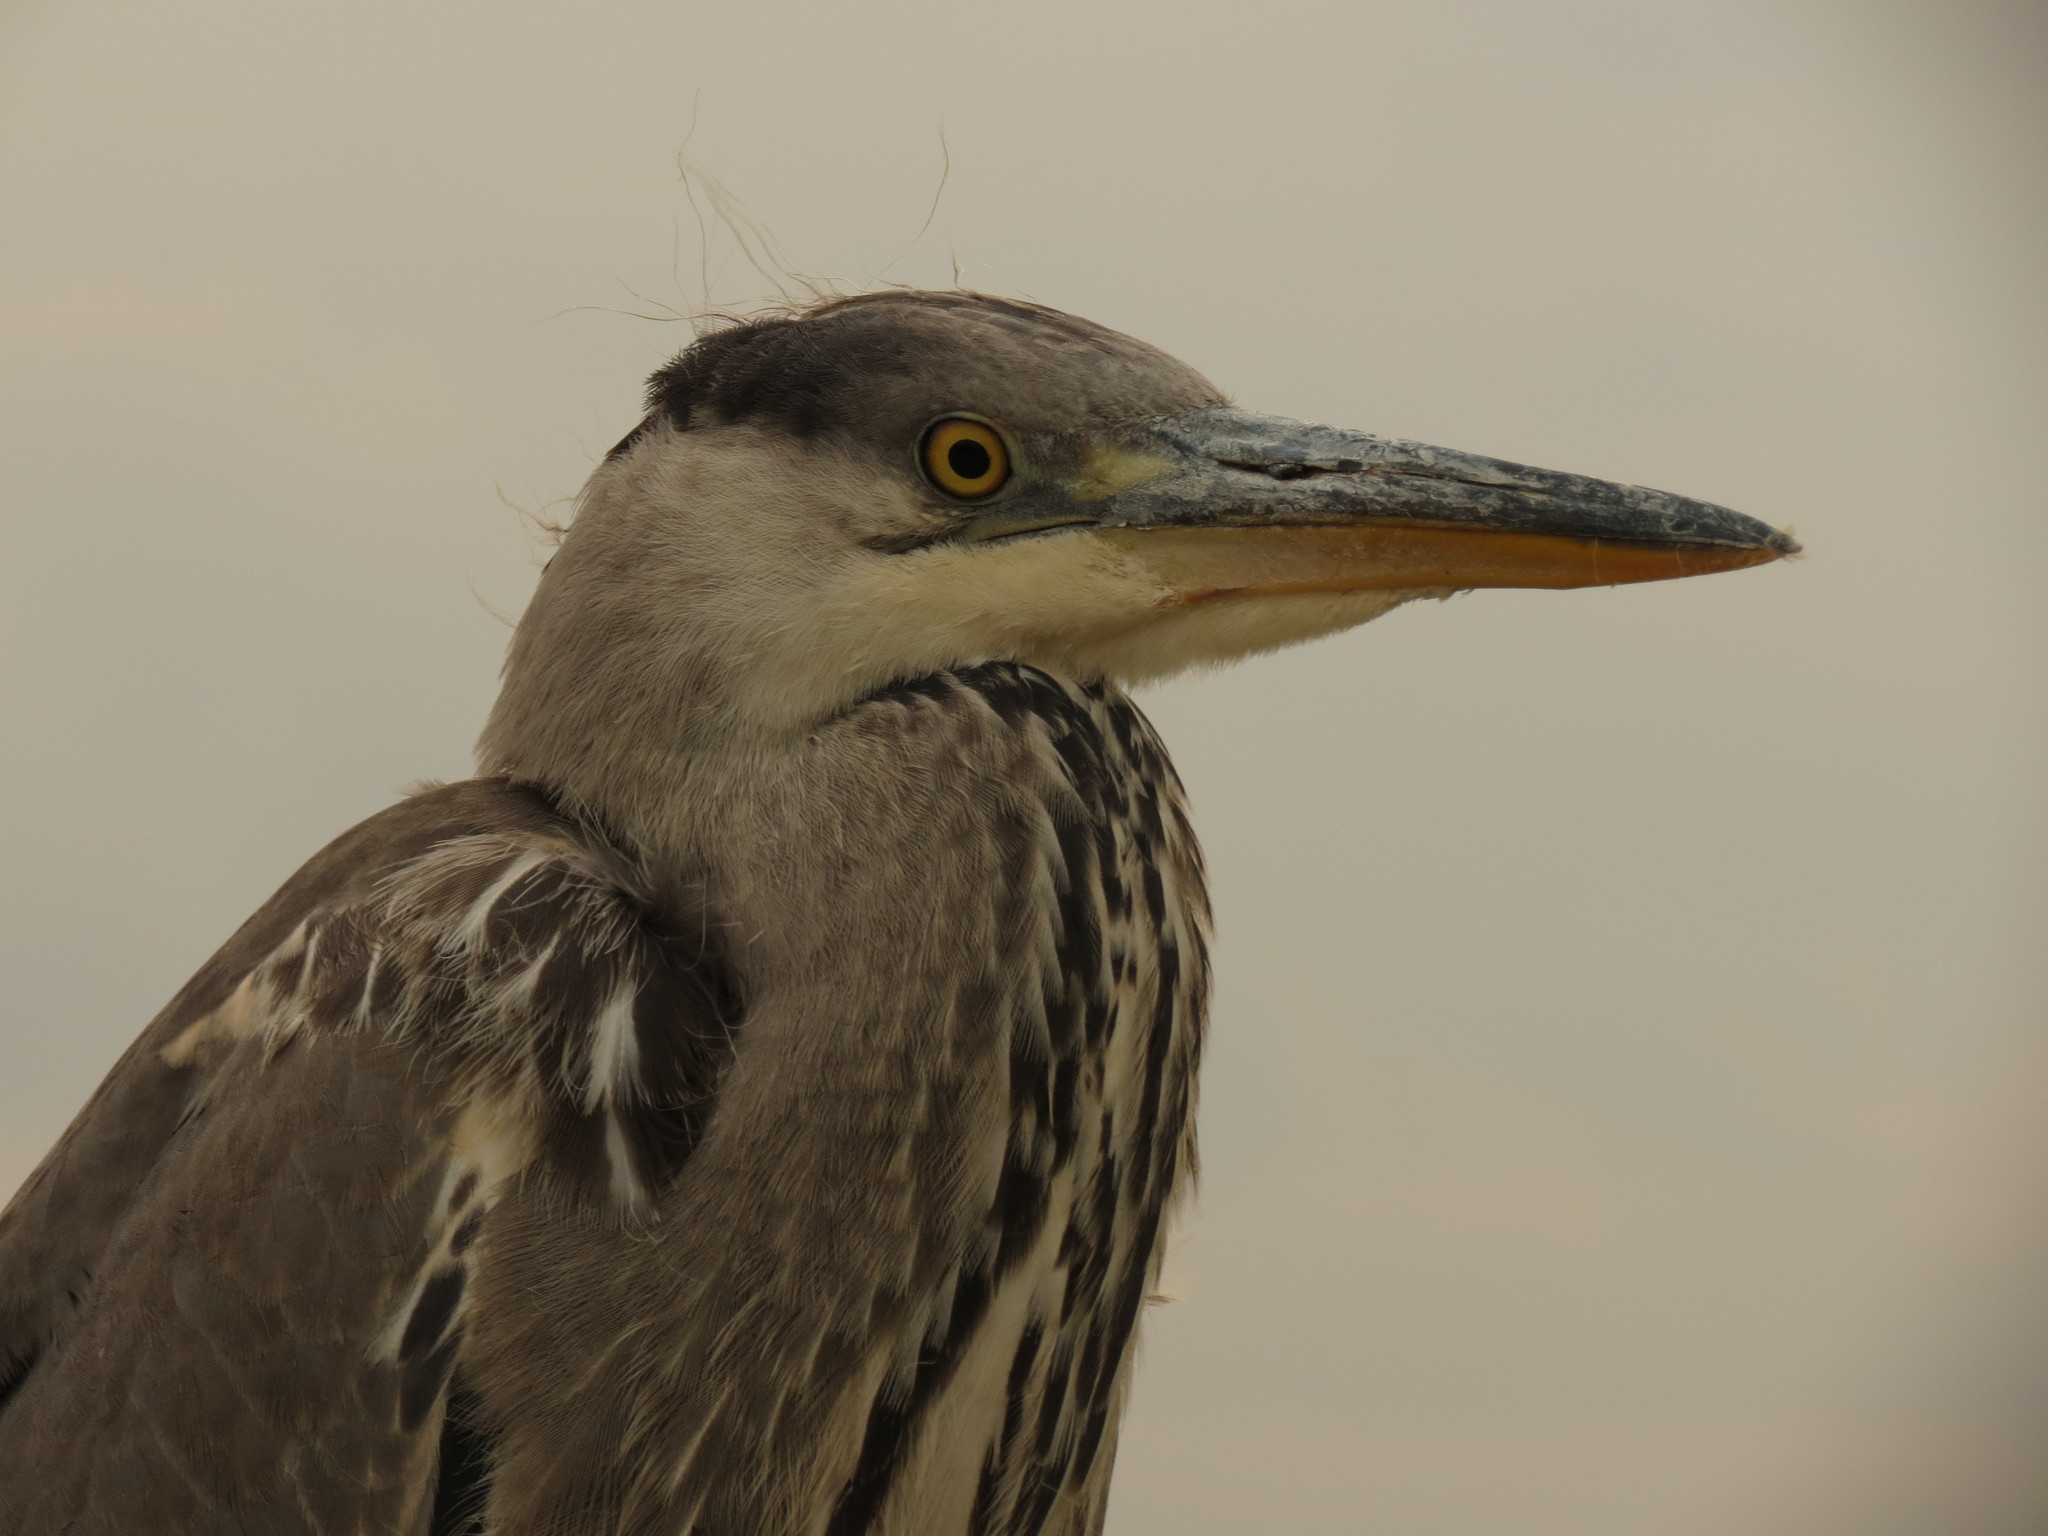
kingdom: Animalia
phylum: Chordata
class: Aves
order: Pelecaniformes
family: Ardeidae
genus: Ardea
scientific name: Ardea cinerea
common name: Grey heron
